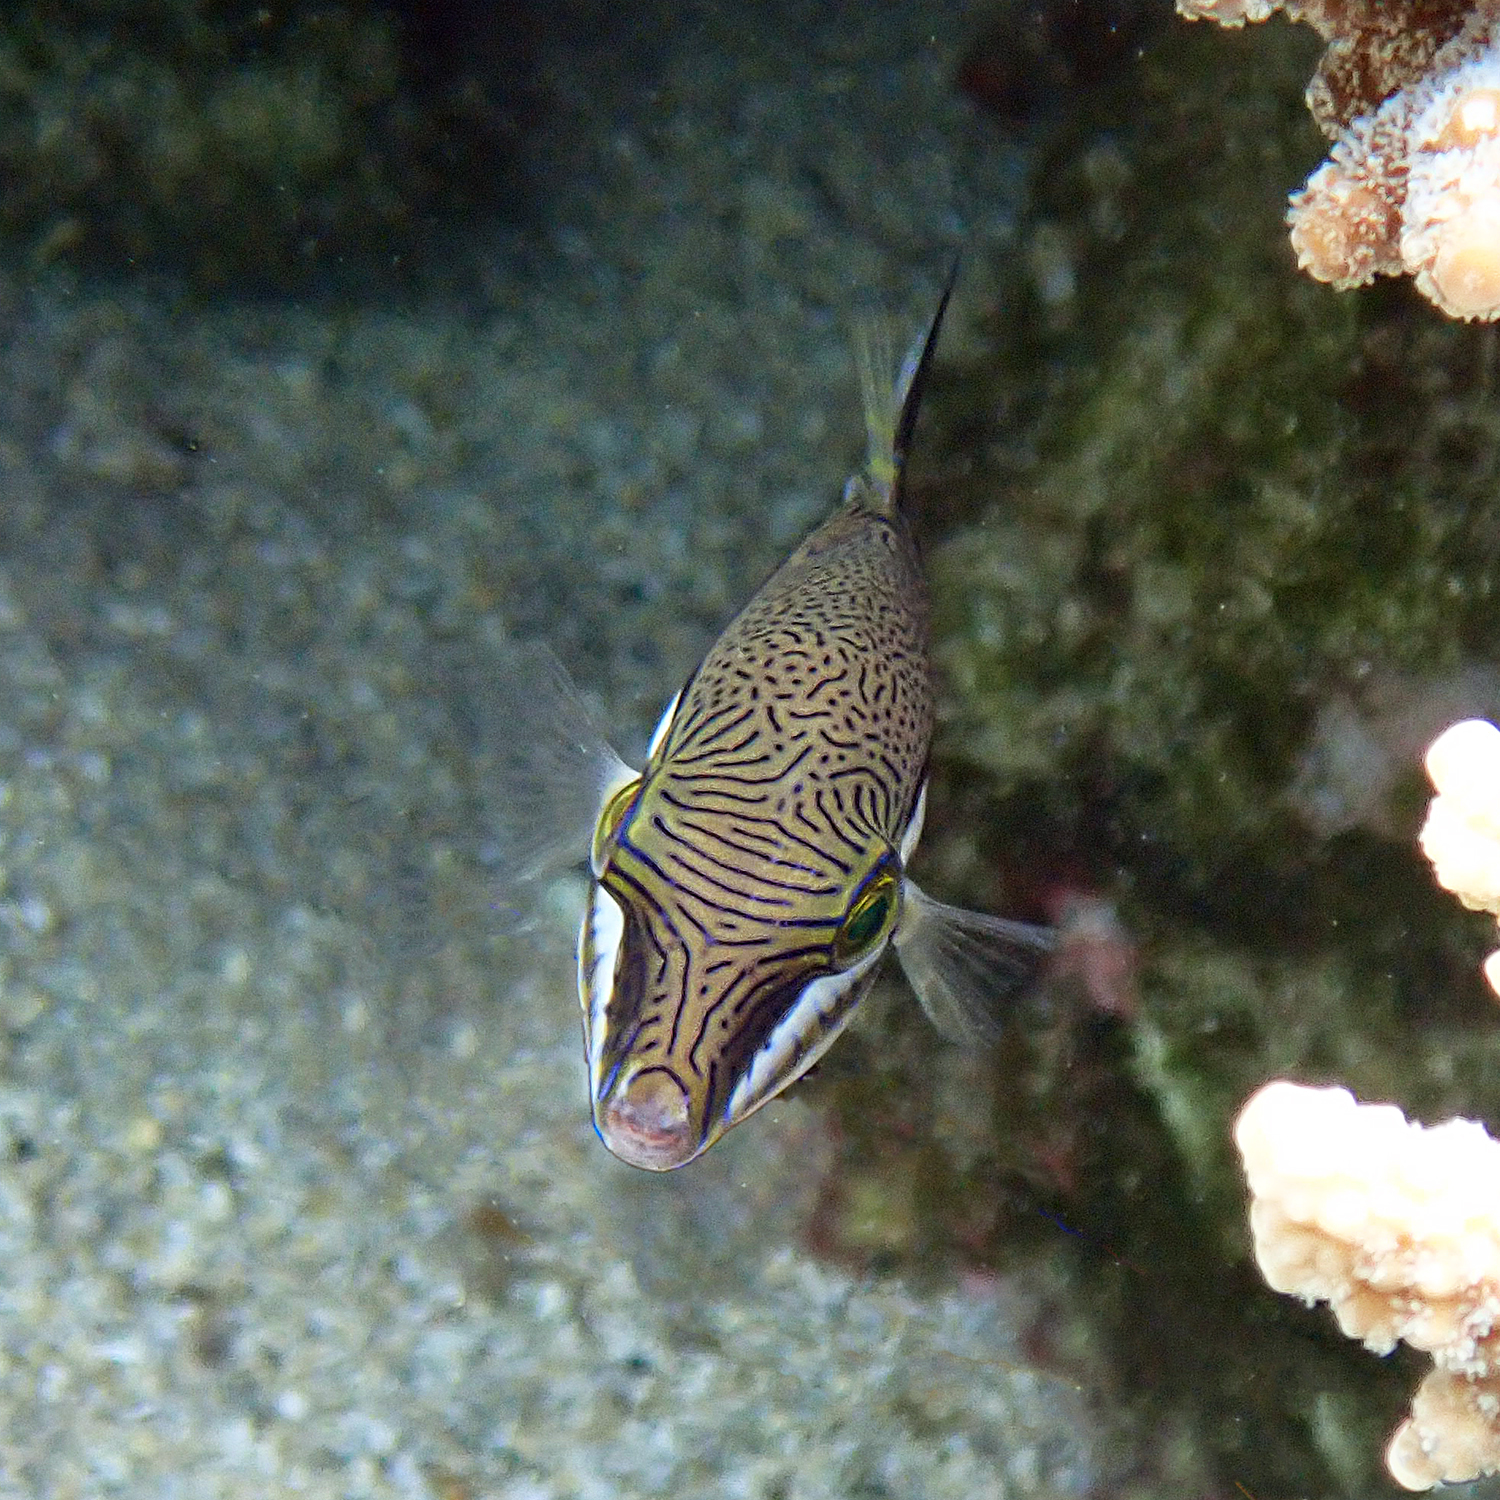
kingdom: Animalia
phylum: Chordata
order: Tetraodontiformes
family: Tetraodontidae
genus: Canthigaster
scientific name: Canthigaster callisterna
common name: Clown toado
